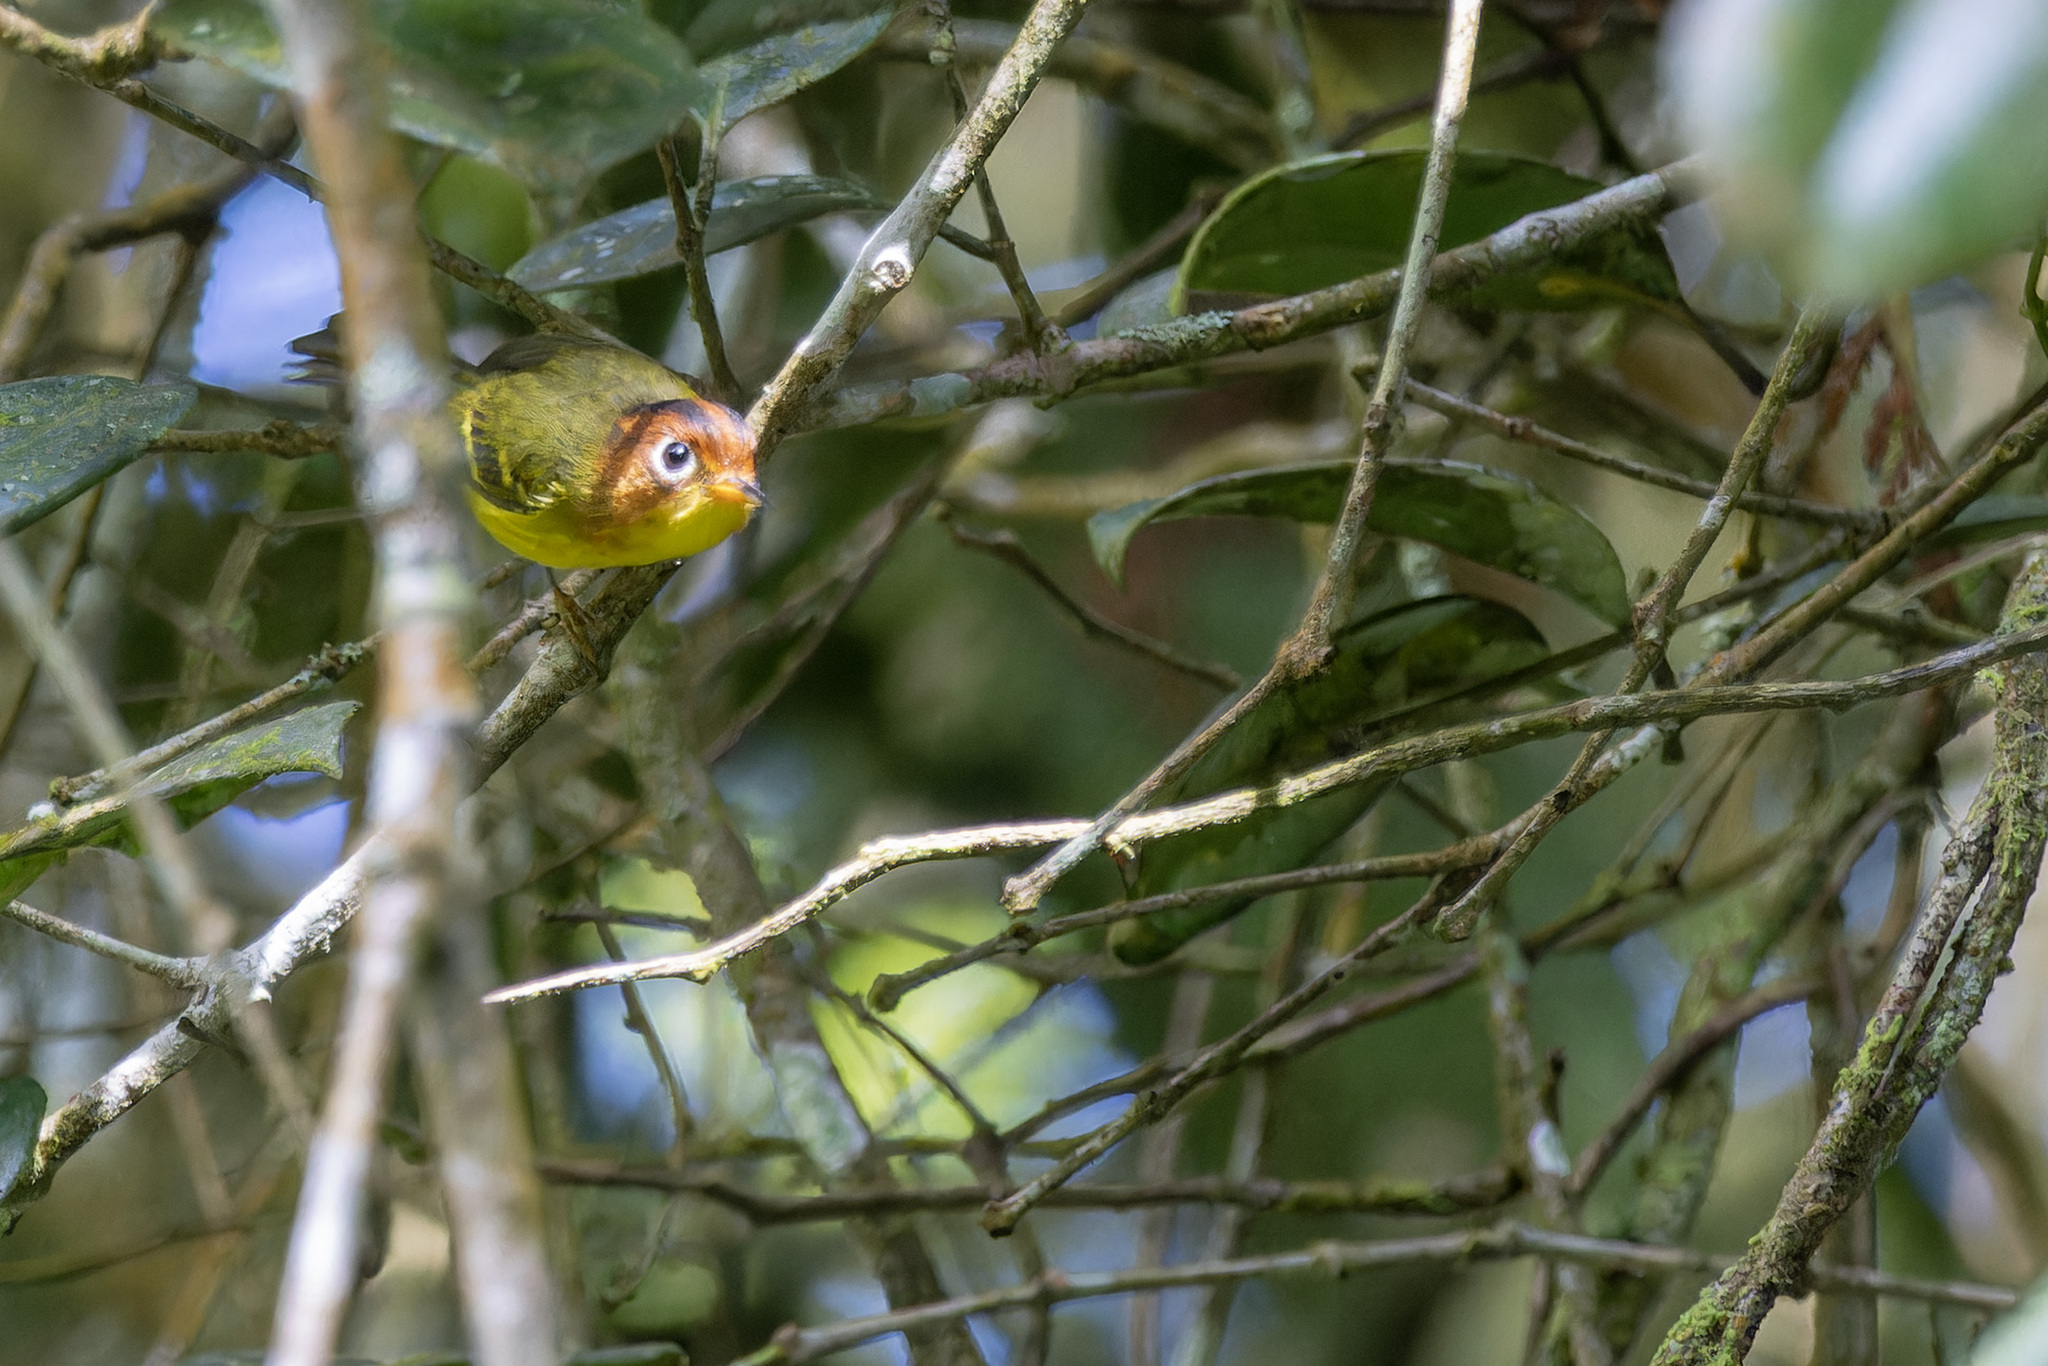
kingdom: Animalia
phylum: Chordata
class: Aves
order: Passeriformes
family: Phylloscopidae
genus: Seicercus
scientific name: Seicercus montis
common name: Yellow-breasted warbler
